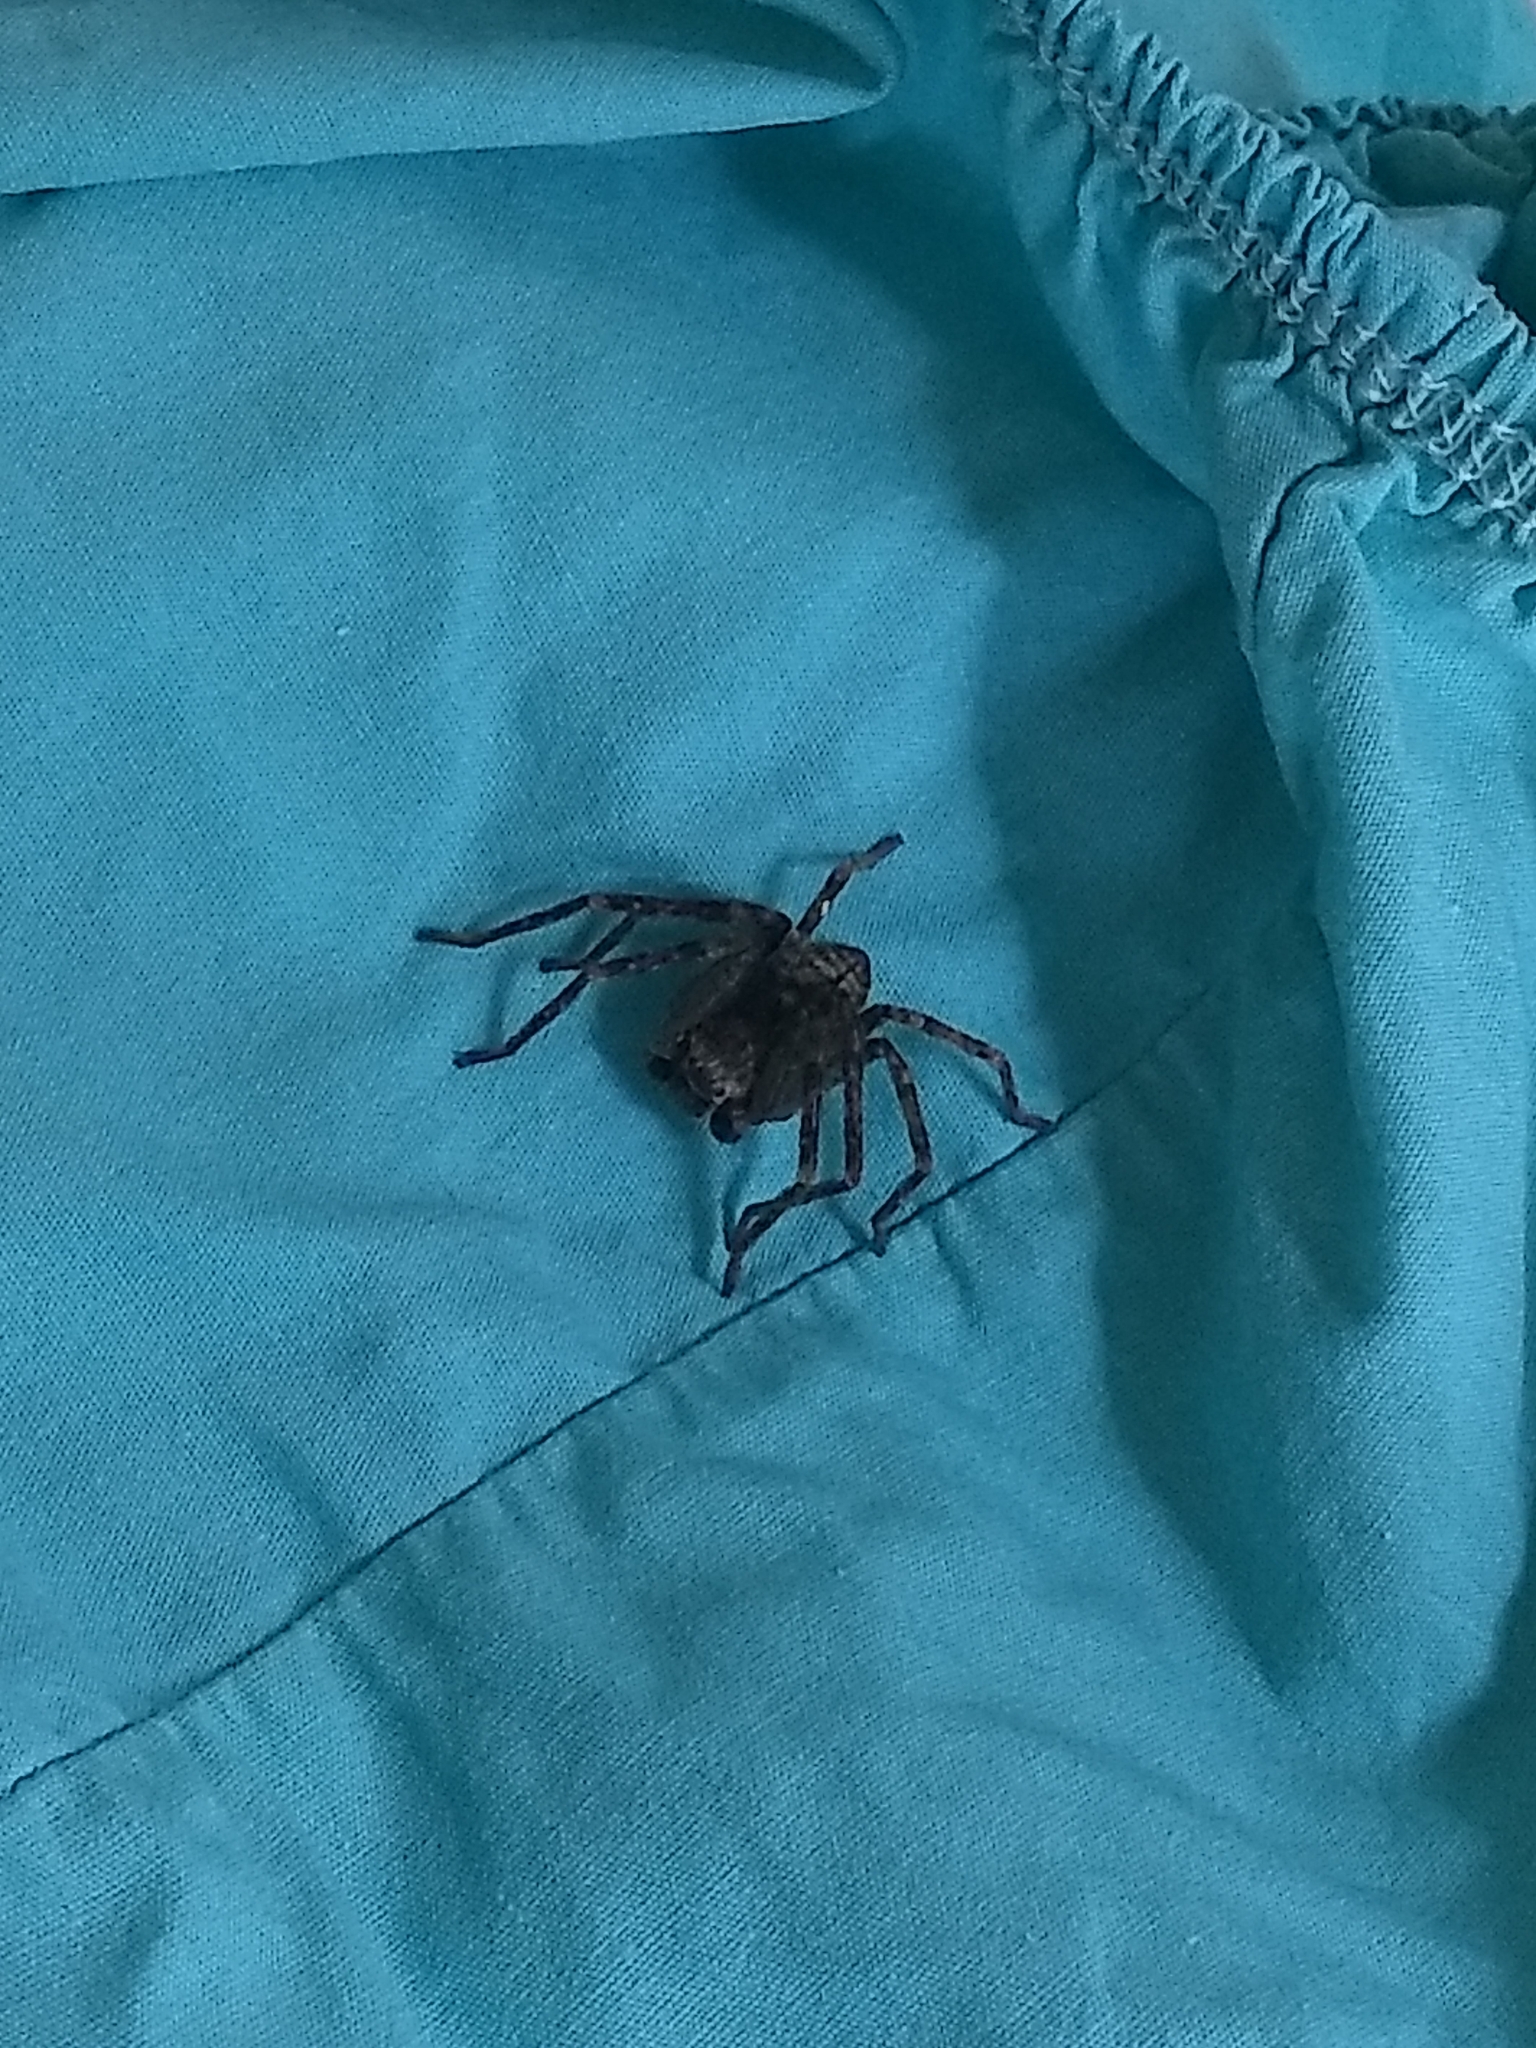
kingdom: Animalia
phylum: Arthropoda
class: Arachnida
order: Araneae
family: Sparassidae
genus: Polybetes
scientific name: Polybetes rapidus
